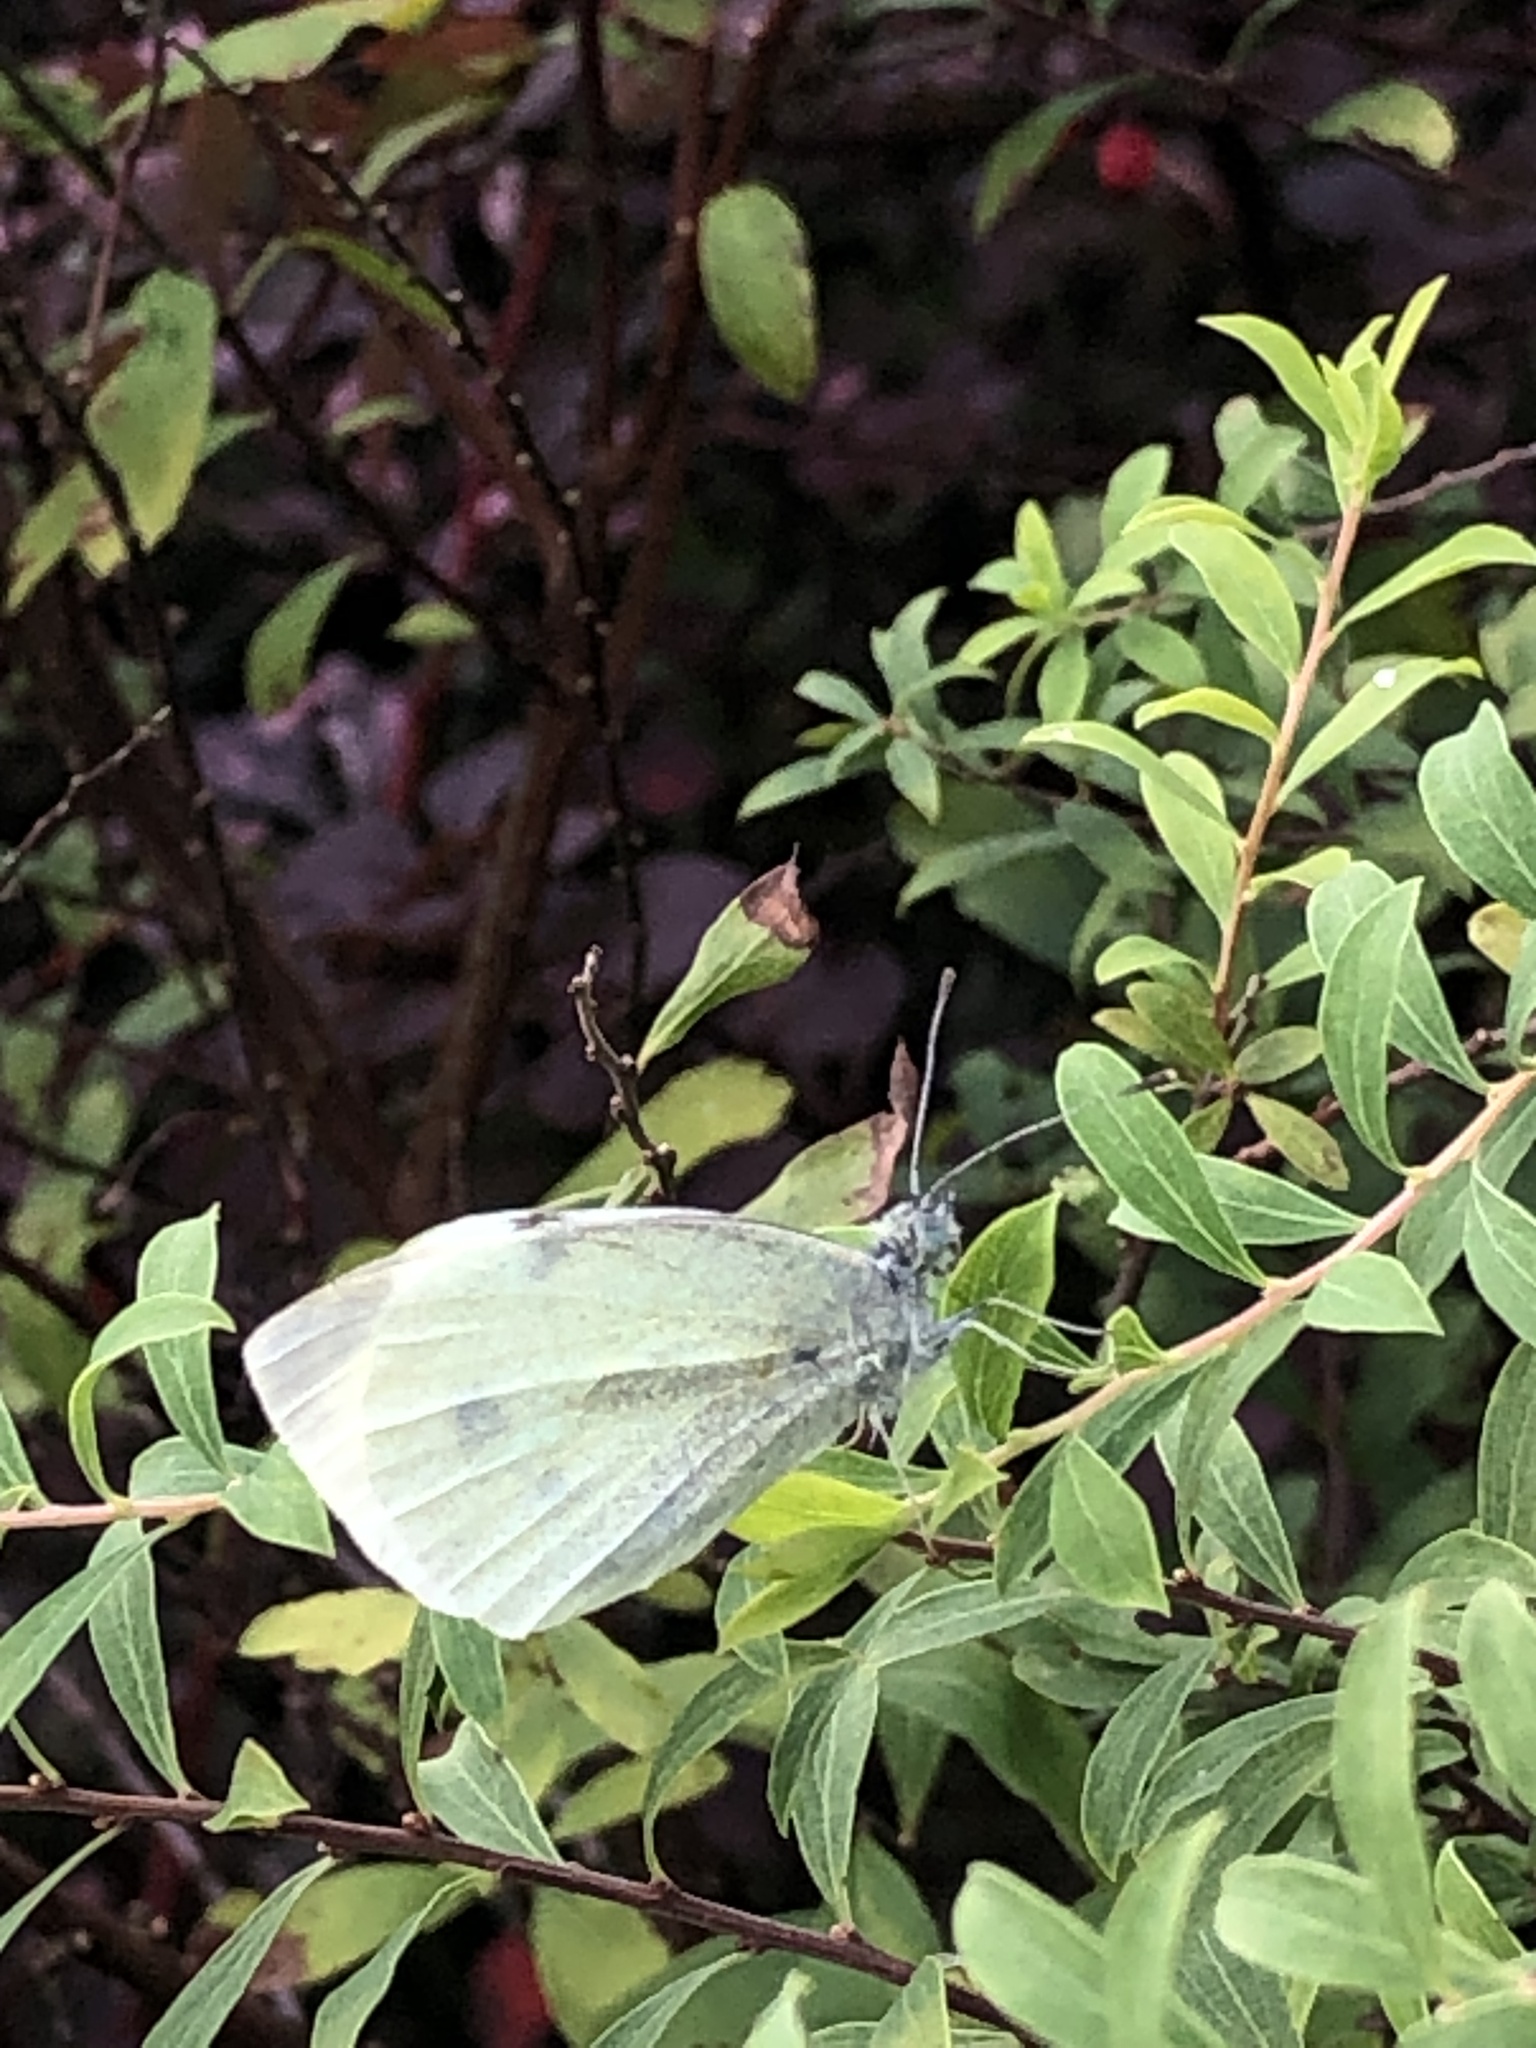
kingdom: Animalia
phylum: Arthropoda
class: Insecta
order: Lepidoptera
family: Pieridae
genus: Pieris
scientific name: Pieris rapae
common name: Small white
